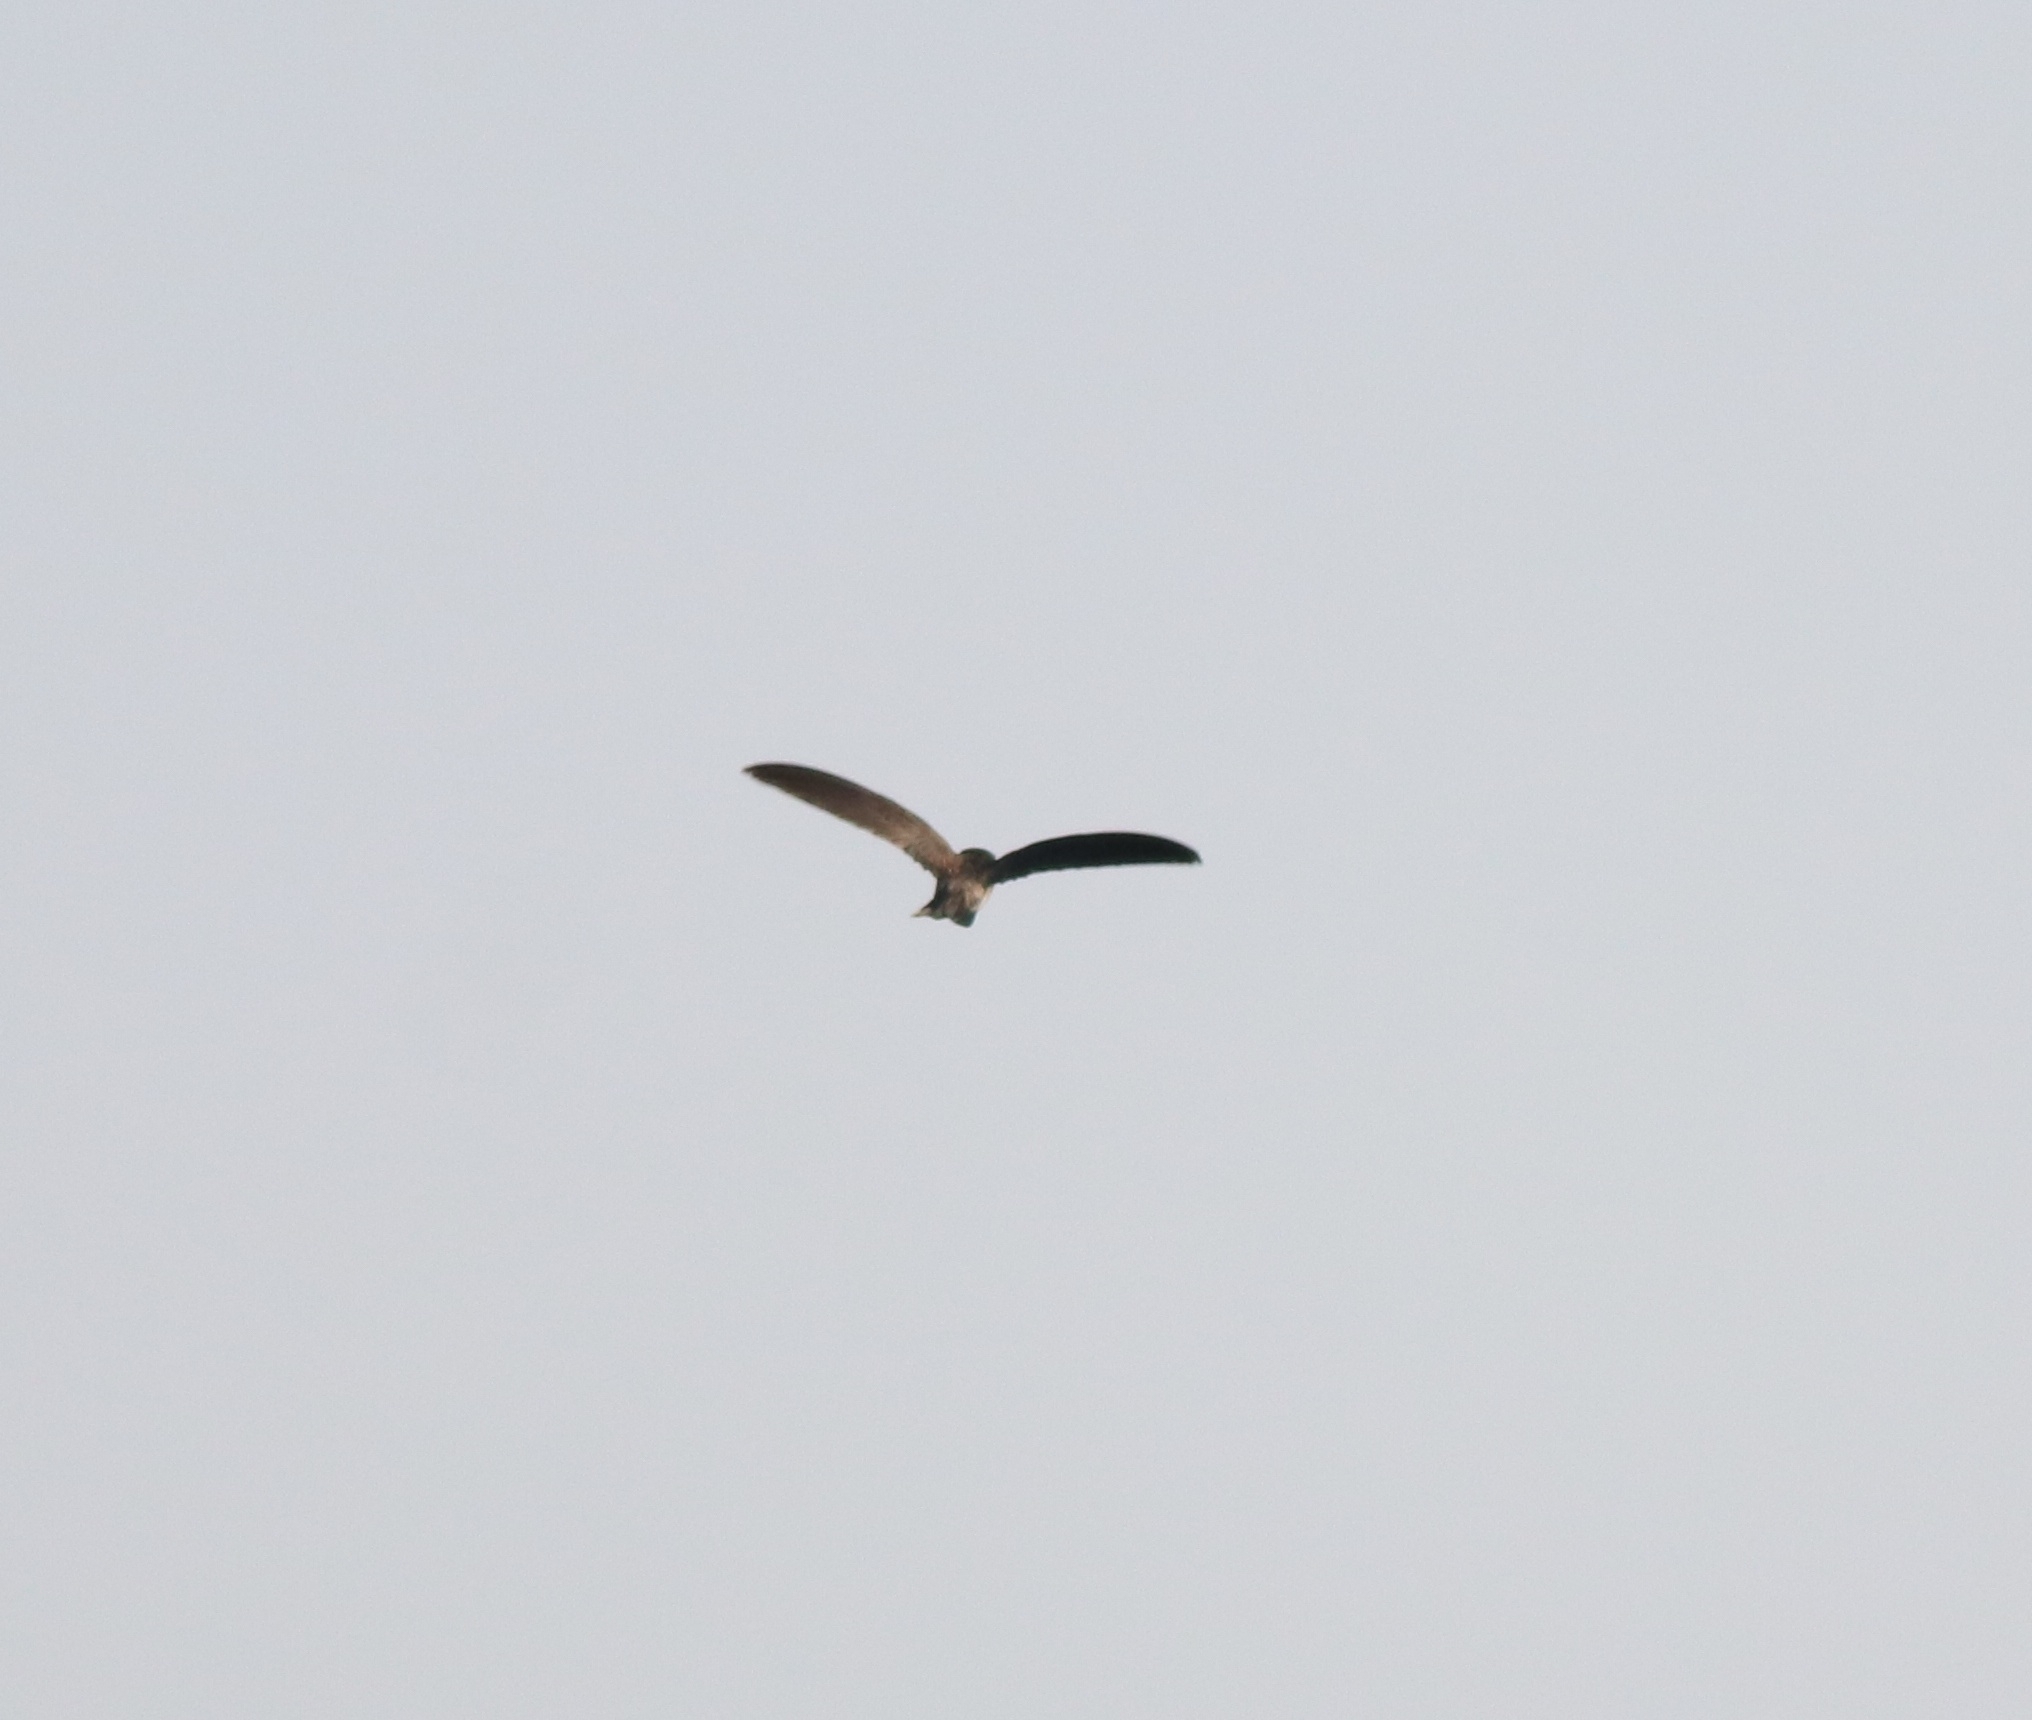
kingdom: Animalia
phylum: Chordata
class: Aves
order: Apodiformes
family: Apodidae
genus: Aerodramus
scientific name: Aerodramus unicolor
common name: Indian swiftlet
